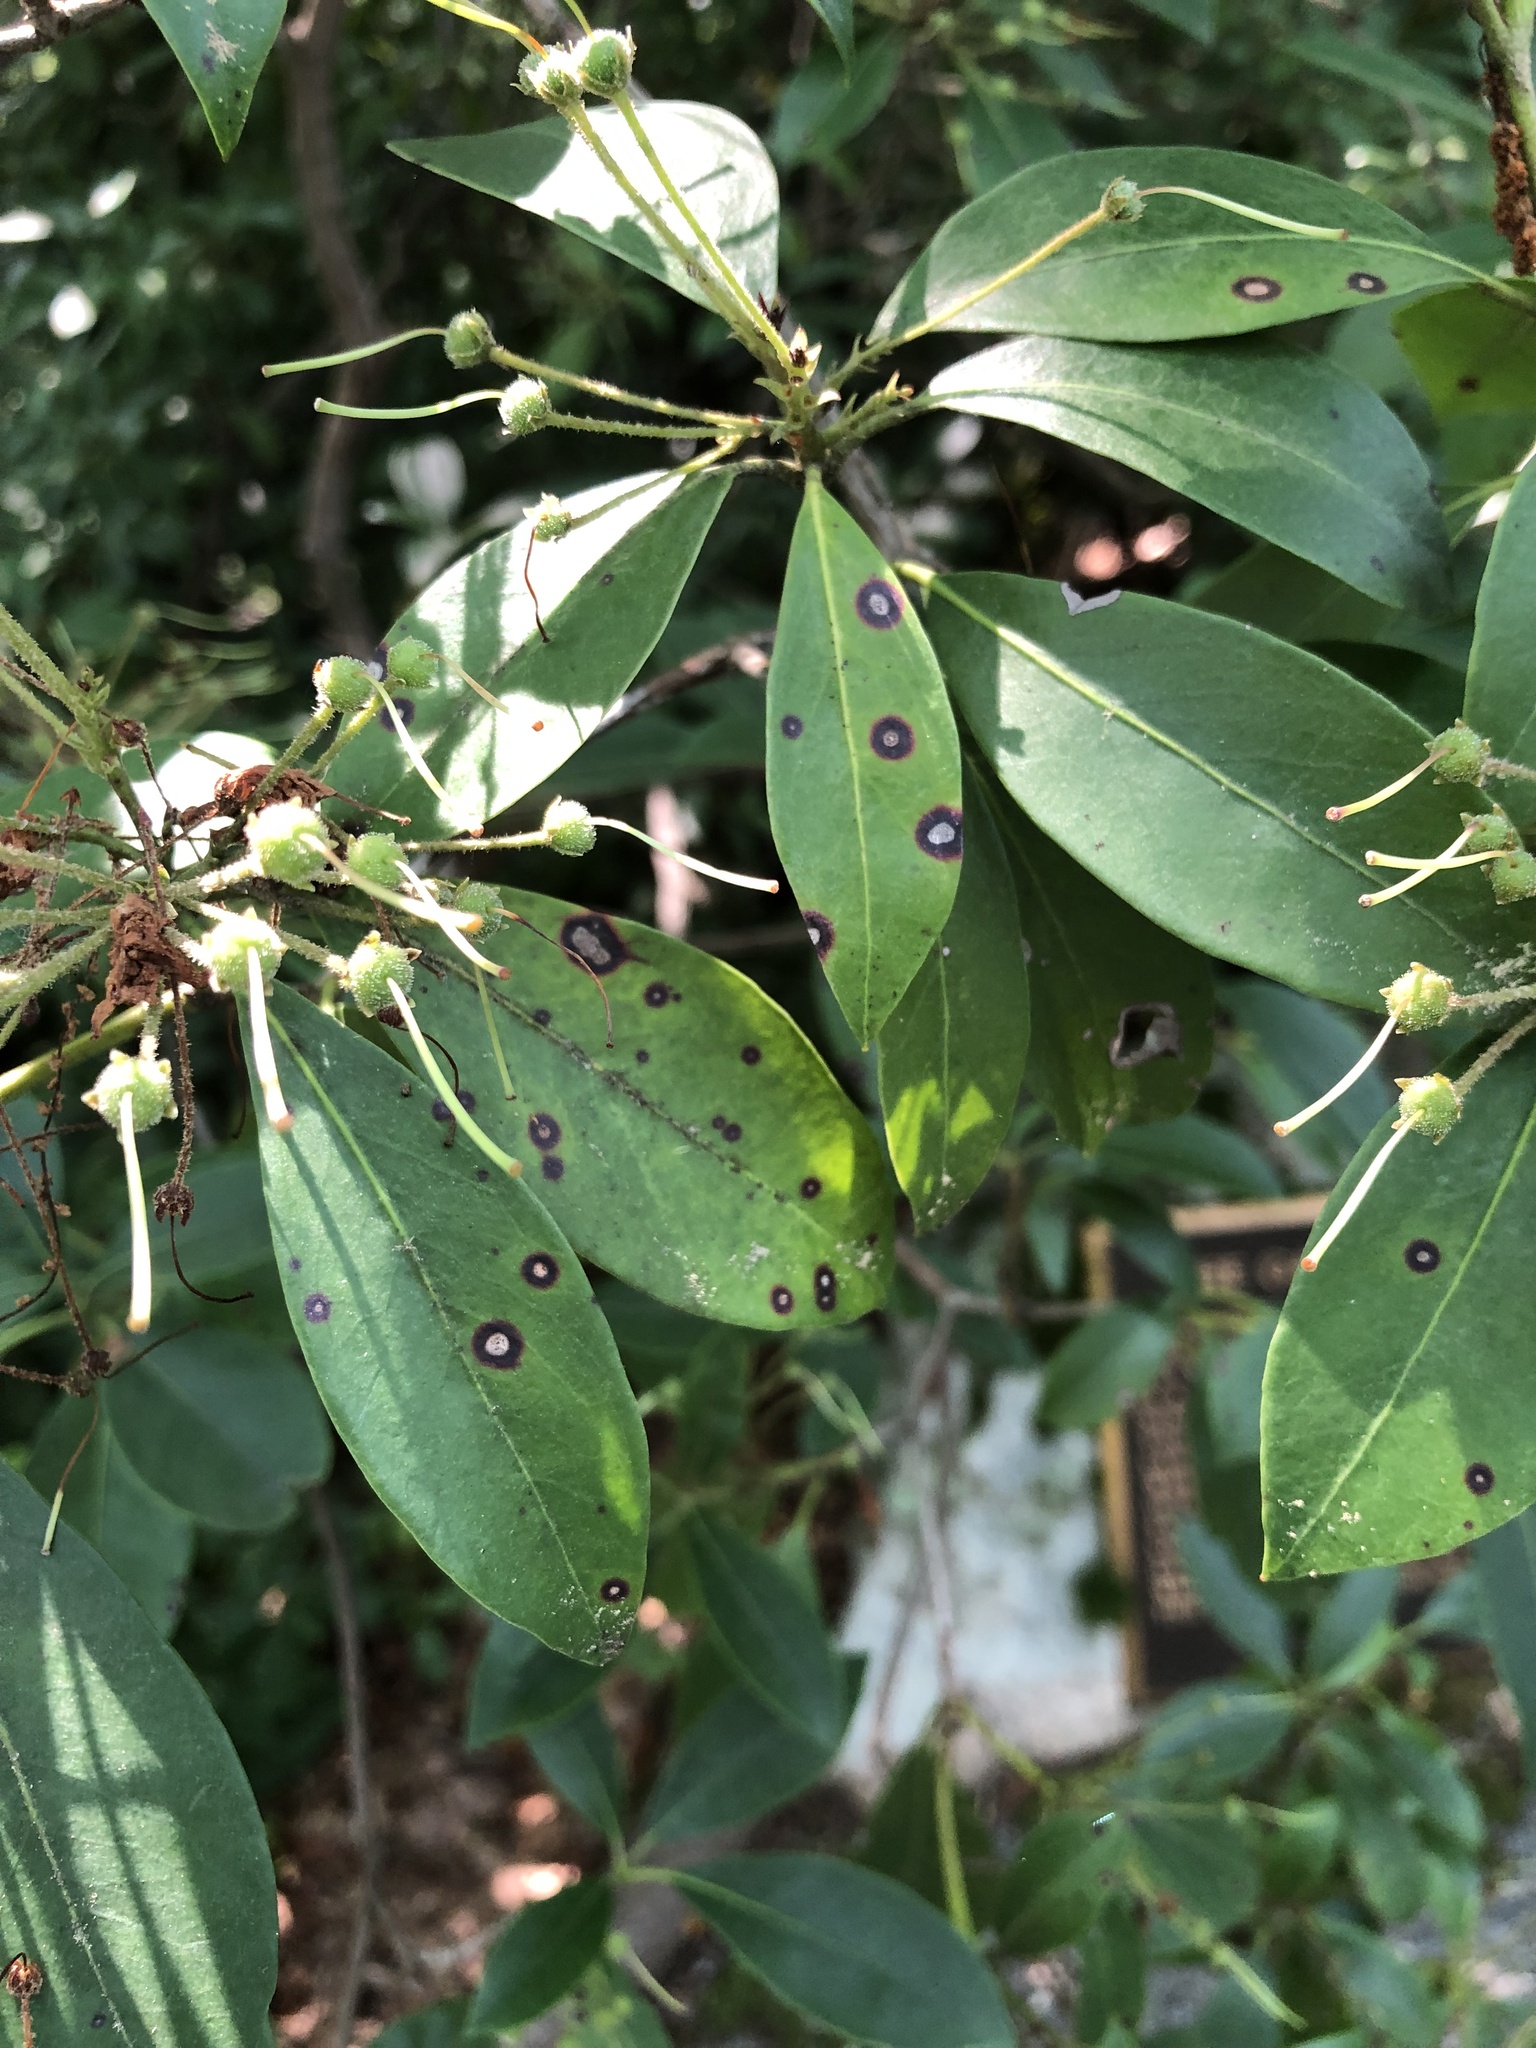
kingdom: Plantae
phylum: Tracheophyta
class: Magnoliopsida
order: Ericales
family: Ericaceae
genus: Kalmia
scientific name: Kalmia latifolia
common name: Mountain-laurel
